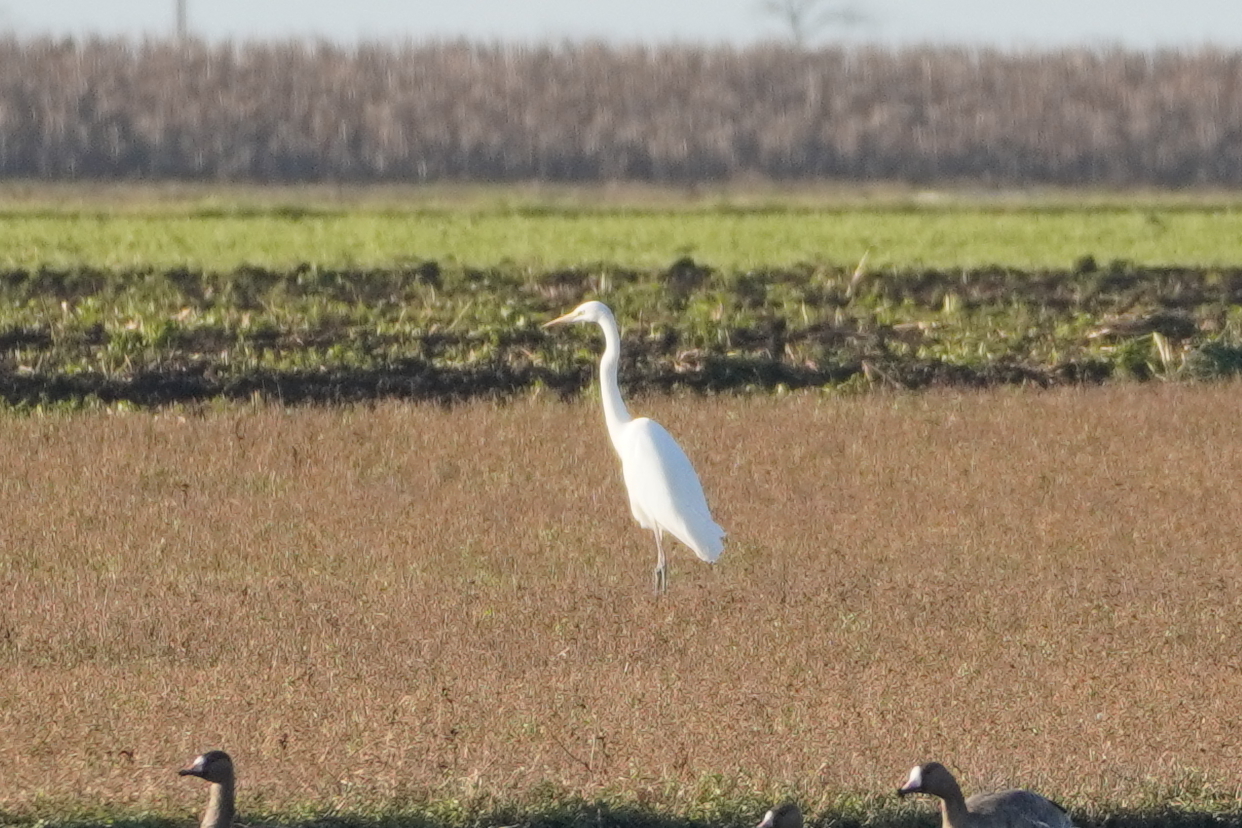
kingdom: Animalia
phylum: Chordata
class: Aves
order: Pelecaniformes
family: Ardeidae
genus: Ardea
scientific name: Ardea alba
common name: Great egret
